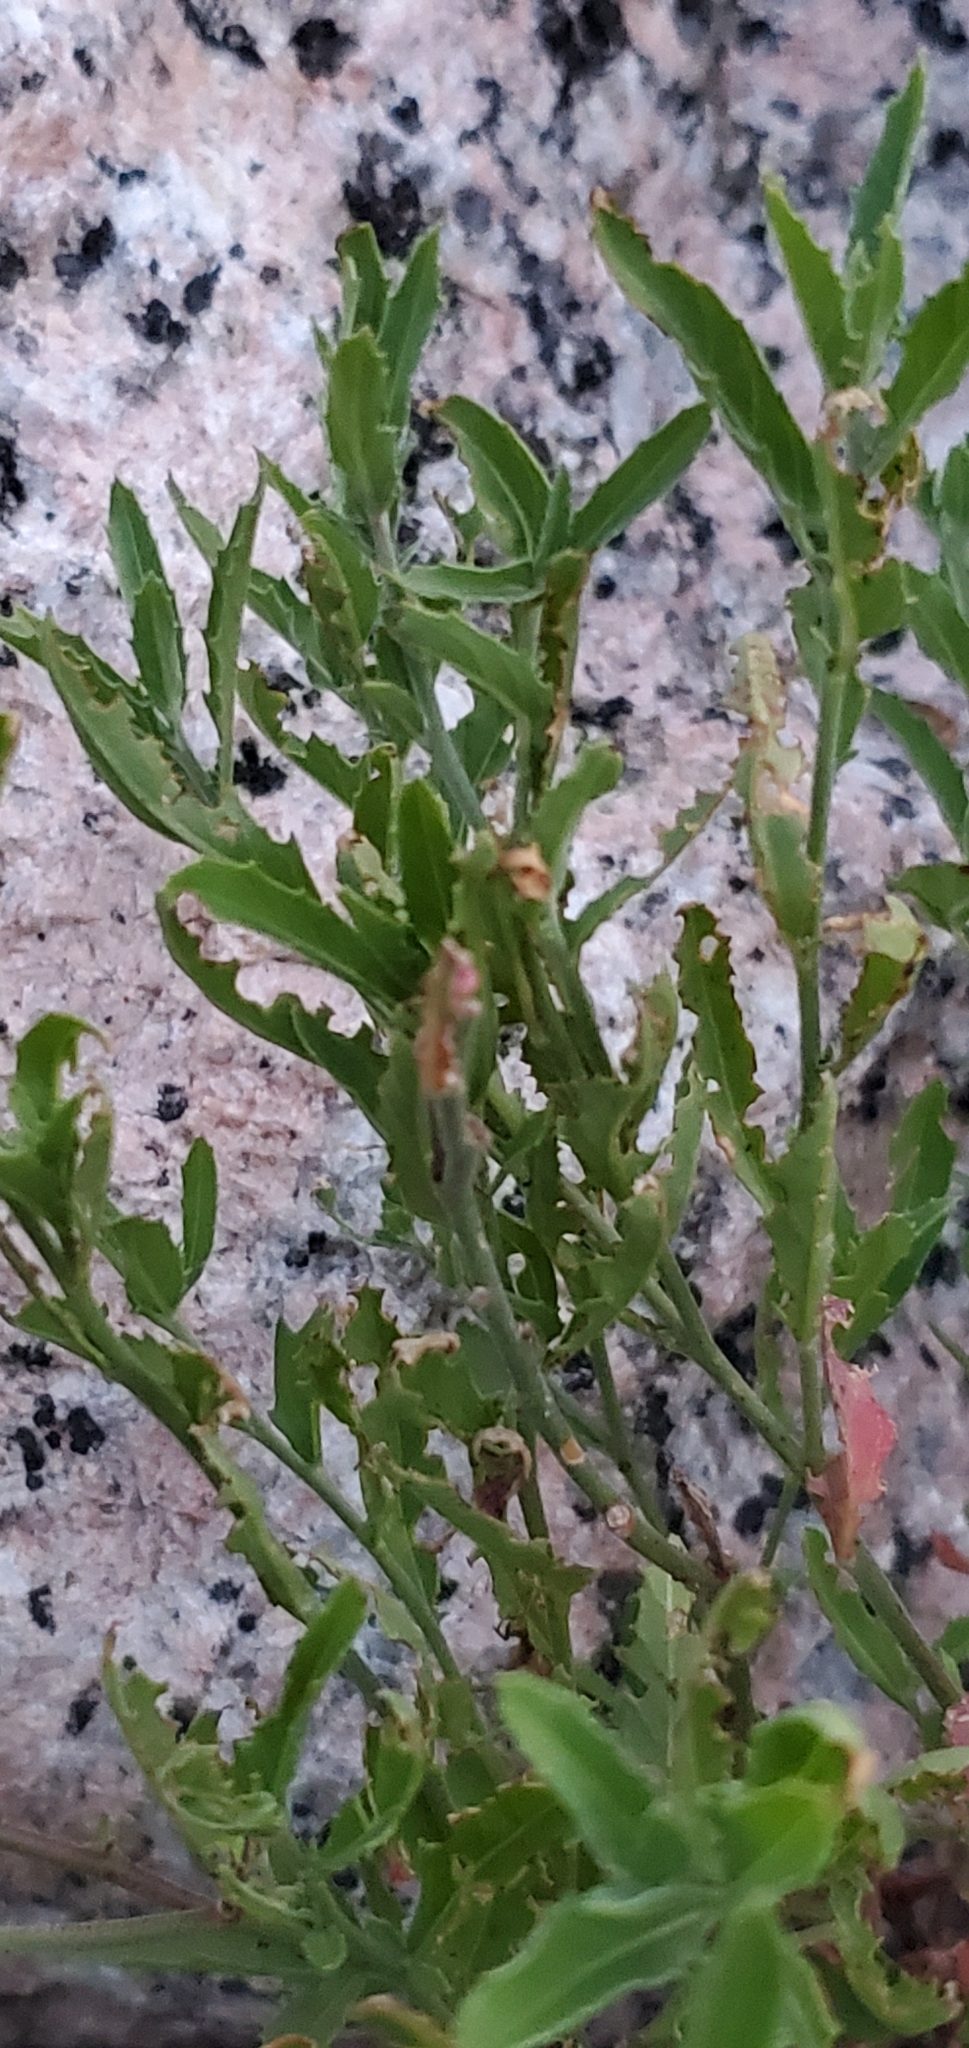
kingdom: Plantae
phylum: Tracheophyta
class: Magnoliopsida
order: Myrtales
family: Onagraceae
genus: Oenothera
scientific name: Oenothera speciosa
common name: White evening-primrose
